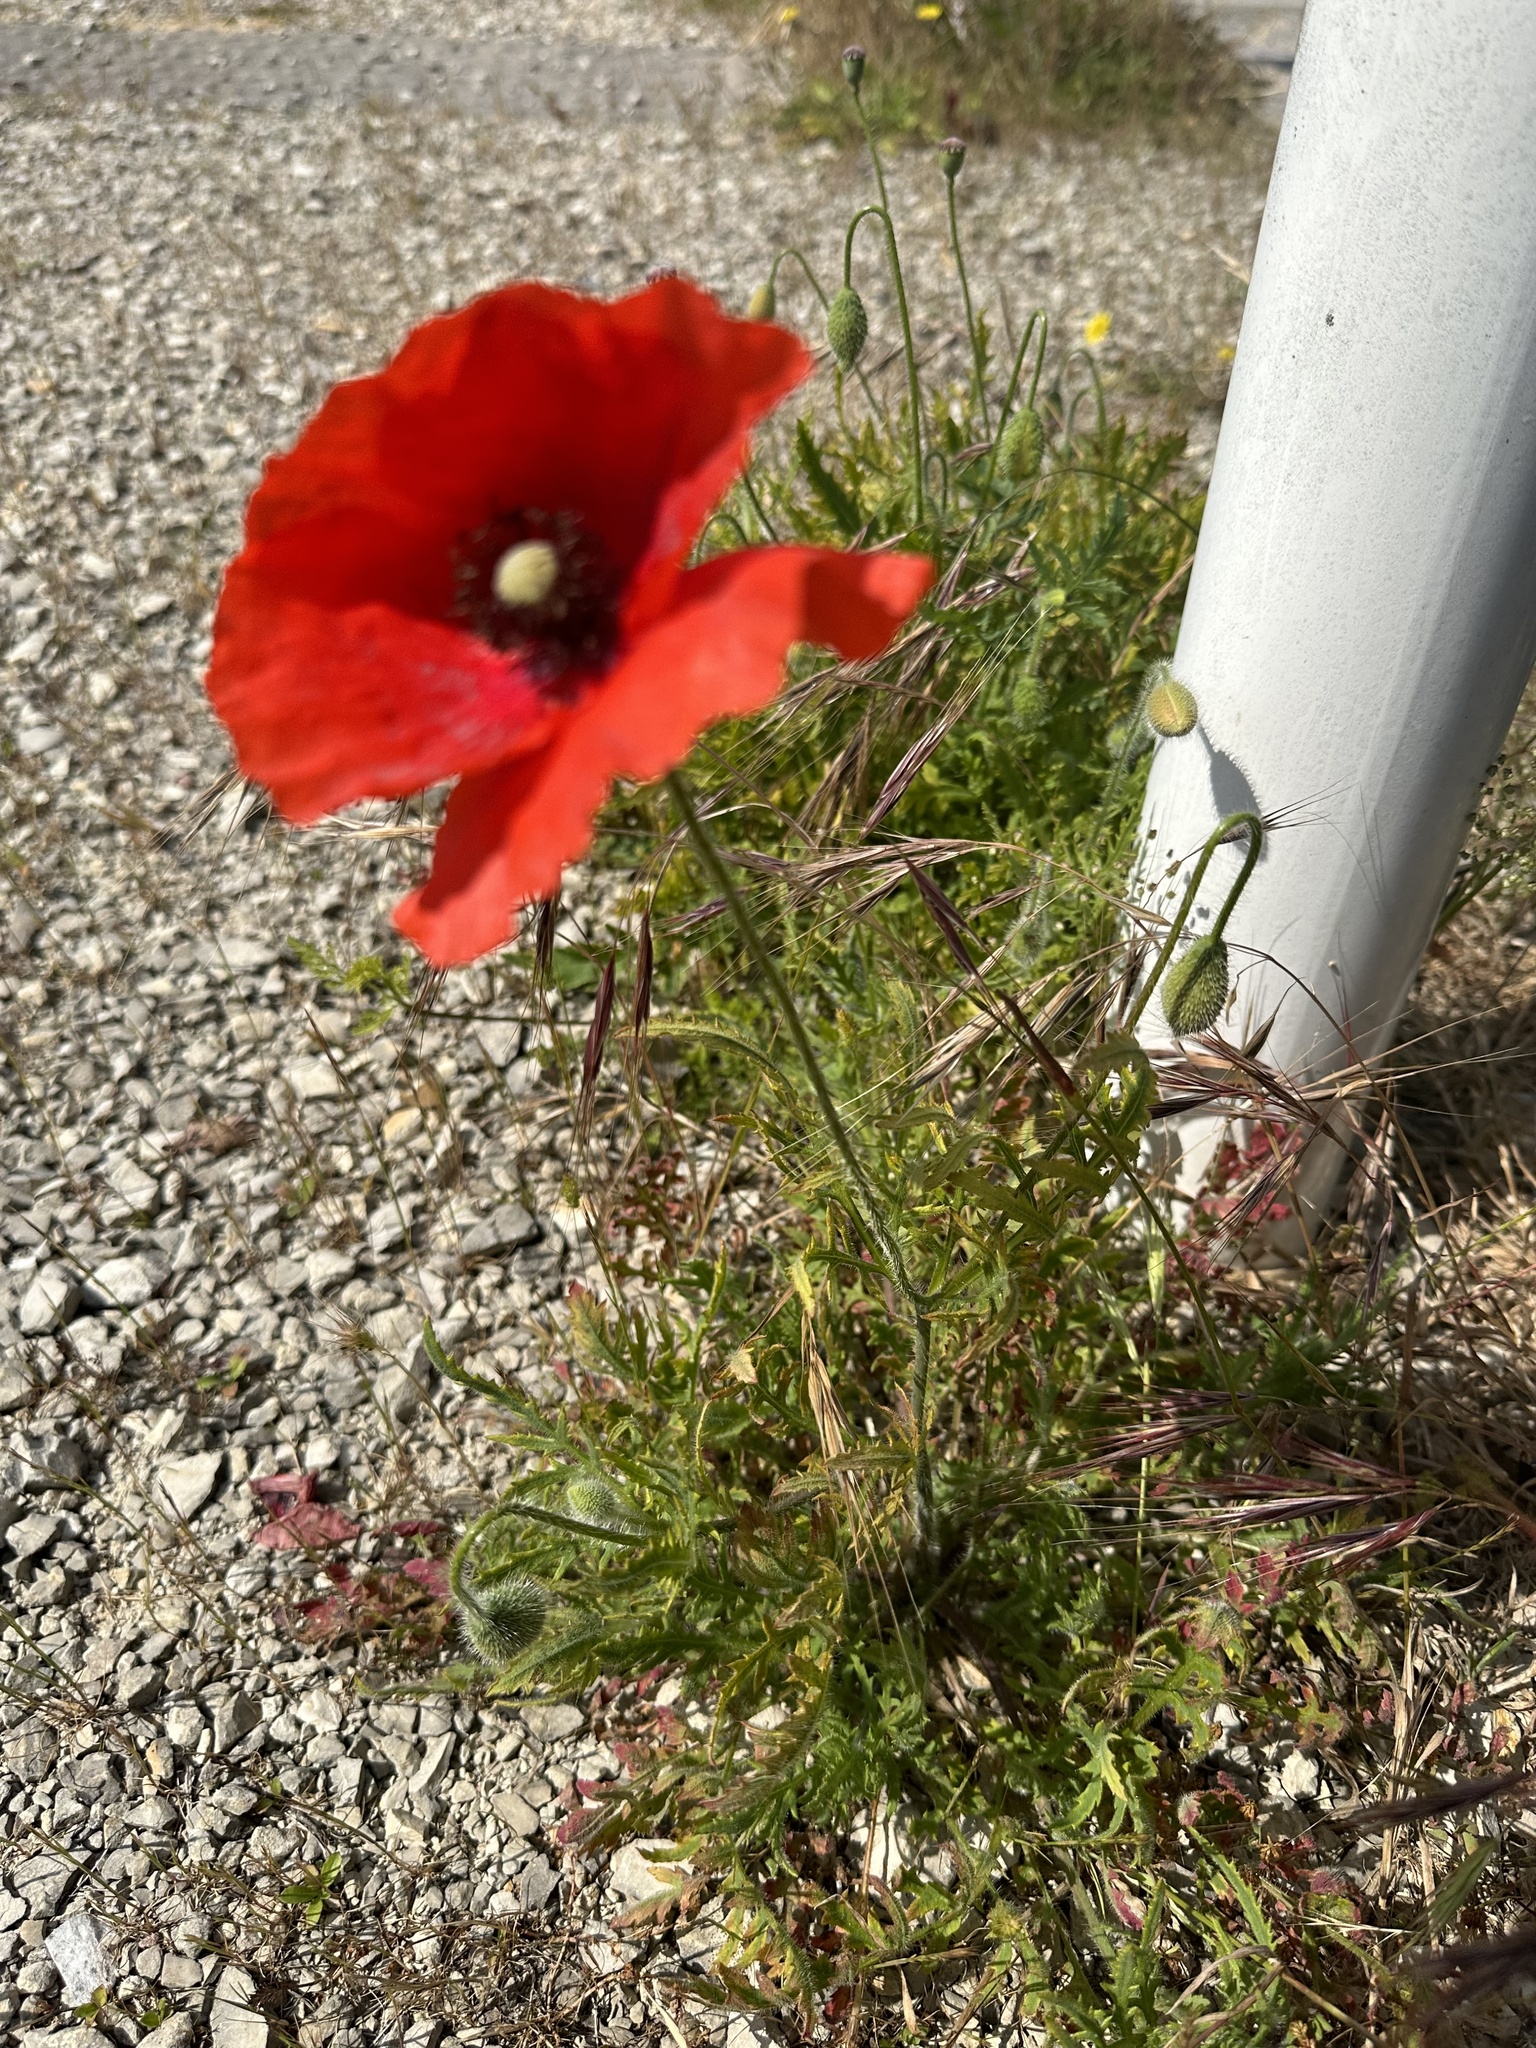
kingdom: Plantae
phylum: Tracheophyta
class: Magnoliopsida
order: Ranunculales
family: Papaveraceae
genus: Papaver
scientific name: Papaver rhoeas
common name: Corn poppy
